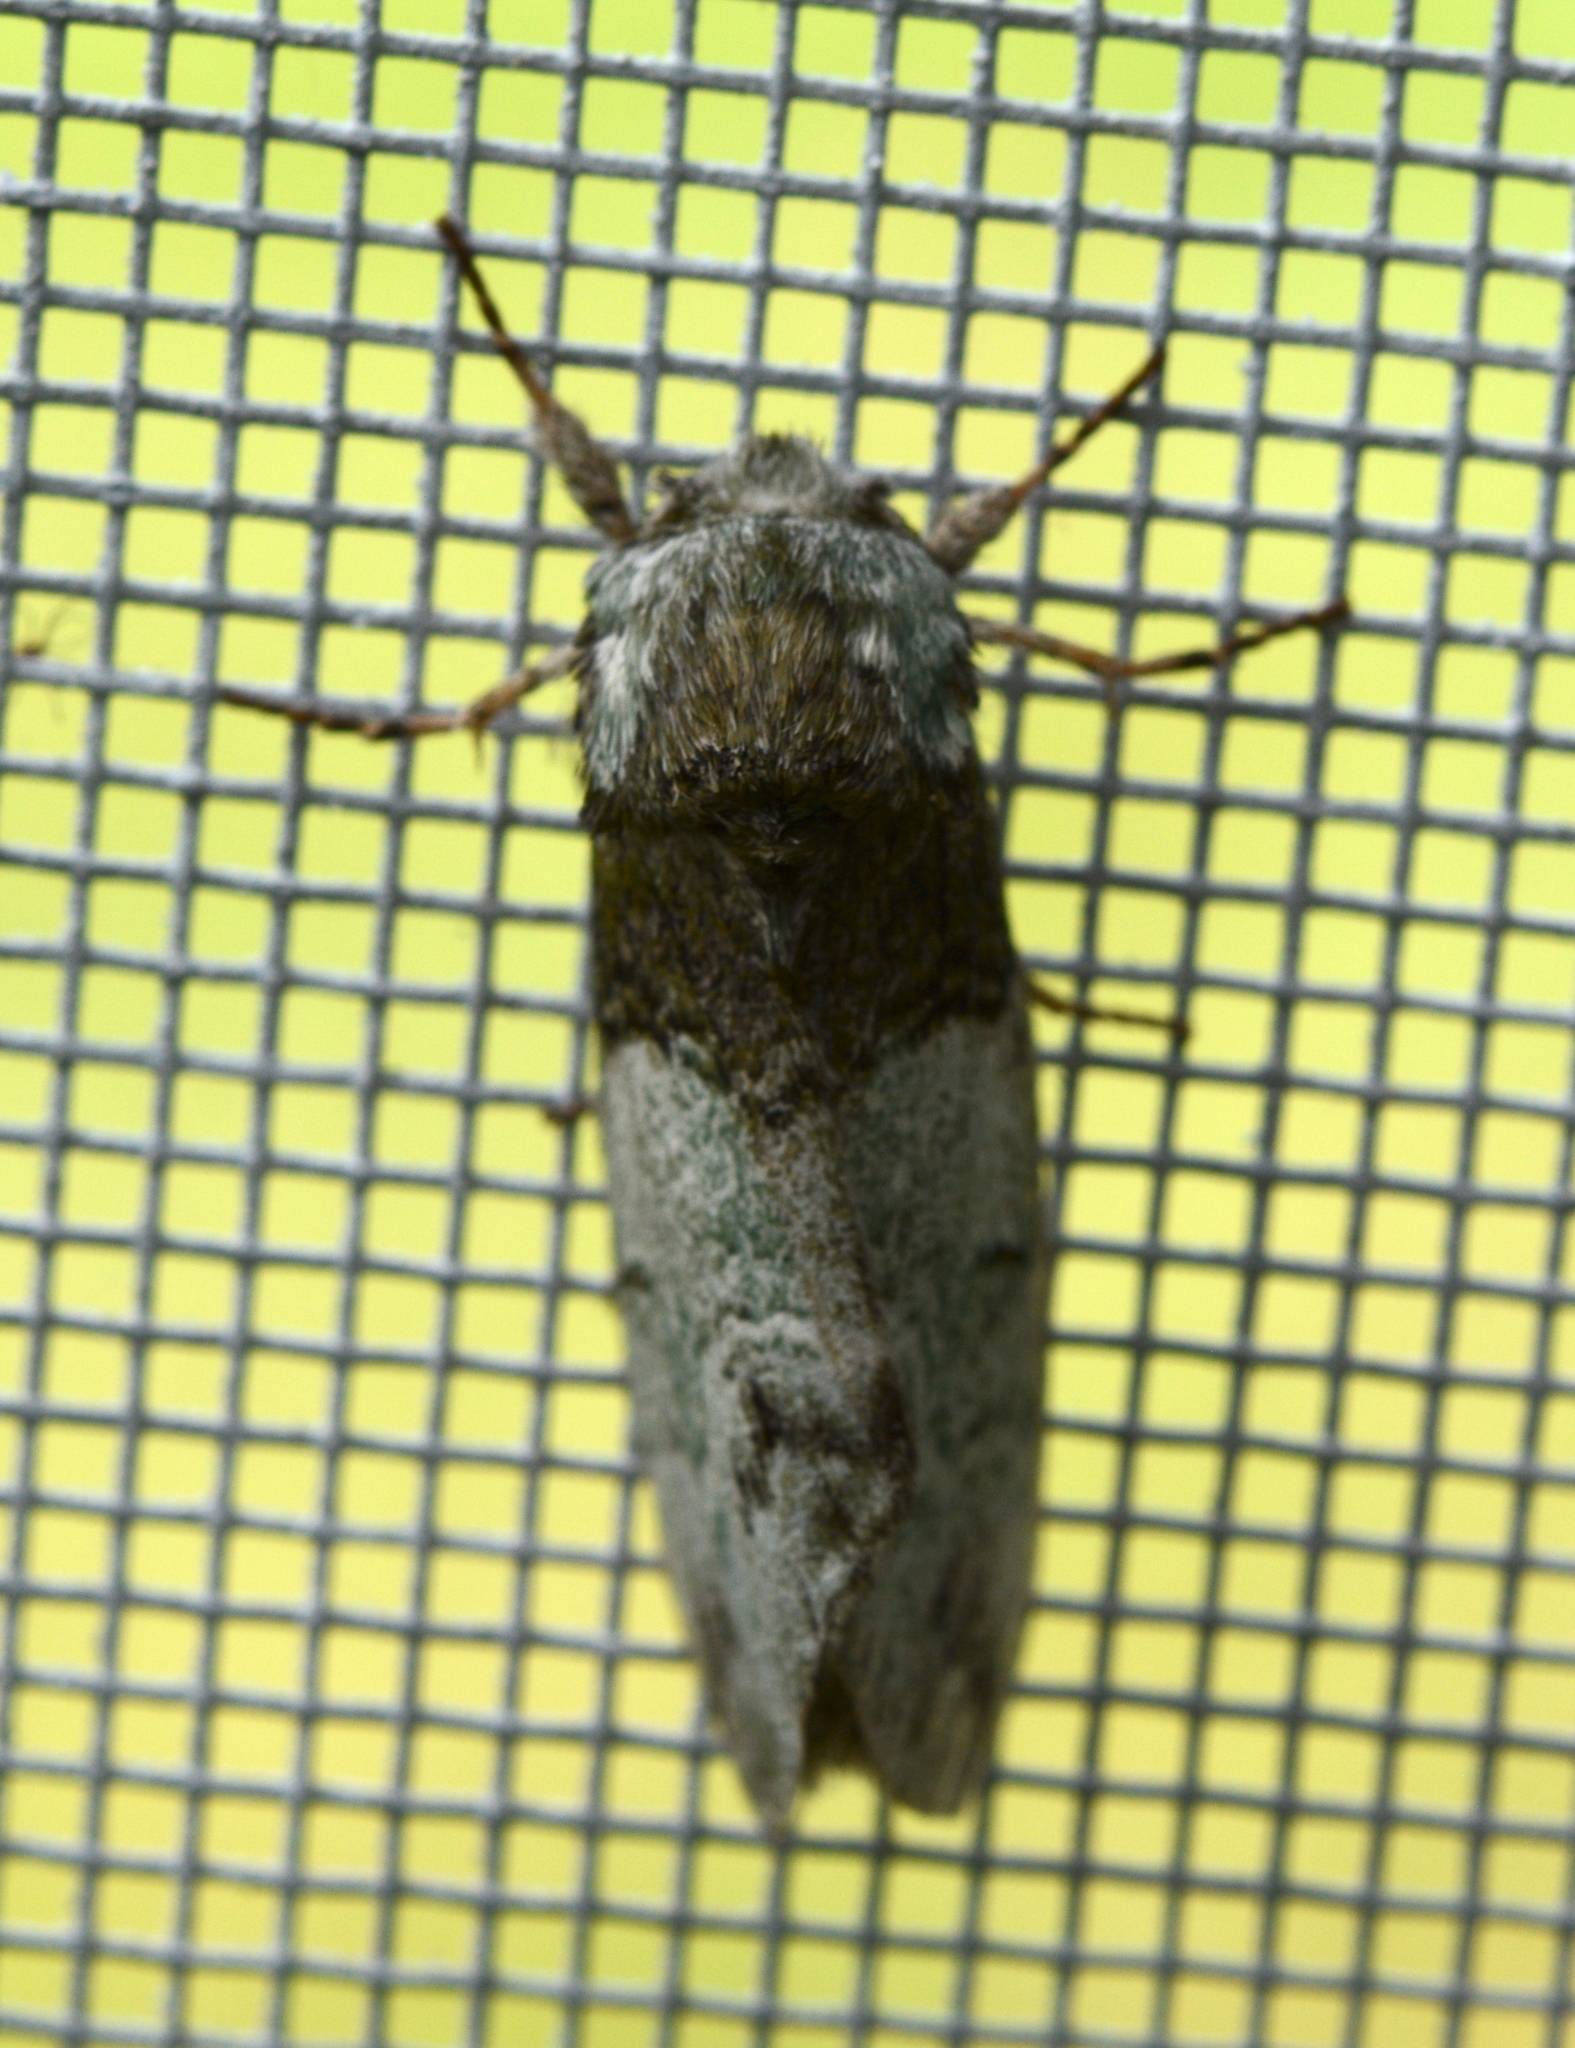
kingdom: Animalia
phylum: Arthropoda
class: Insecta
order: Lepidoptera
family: Notodontidae
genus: Macrurocampa
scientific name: Macrurocampa marthesia
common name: Mottled prominent
